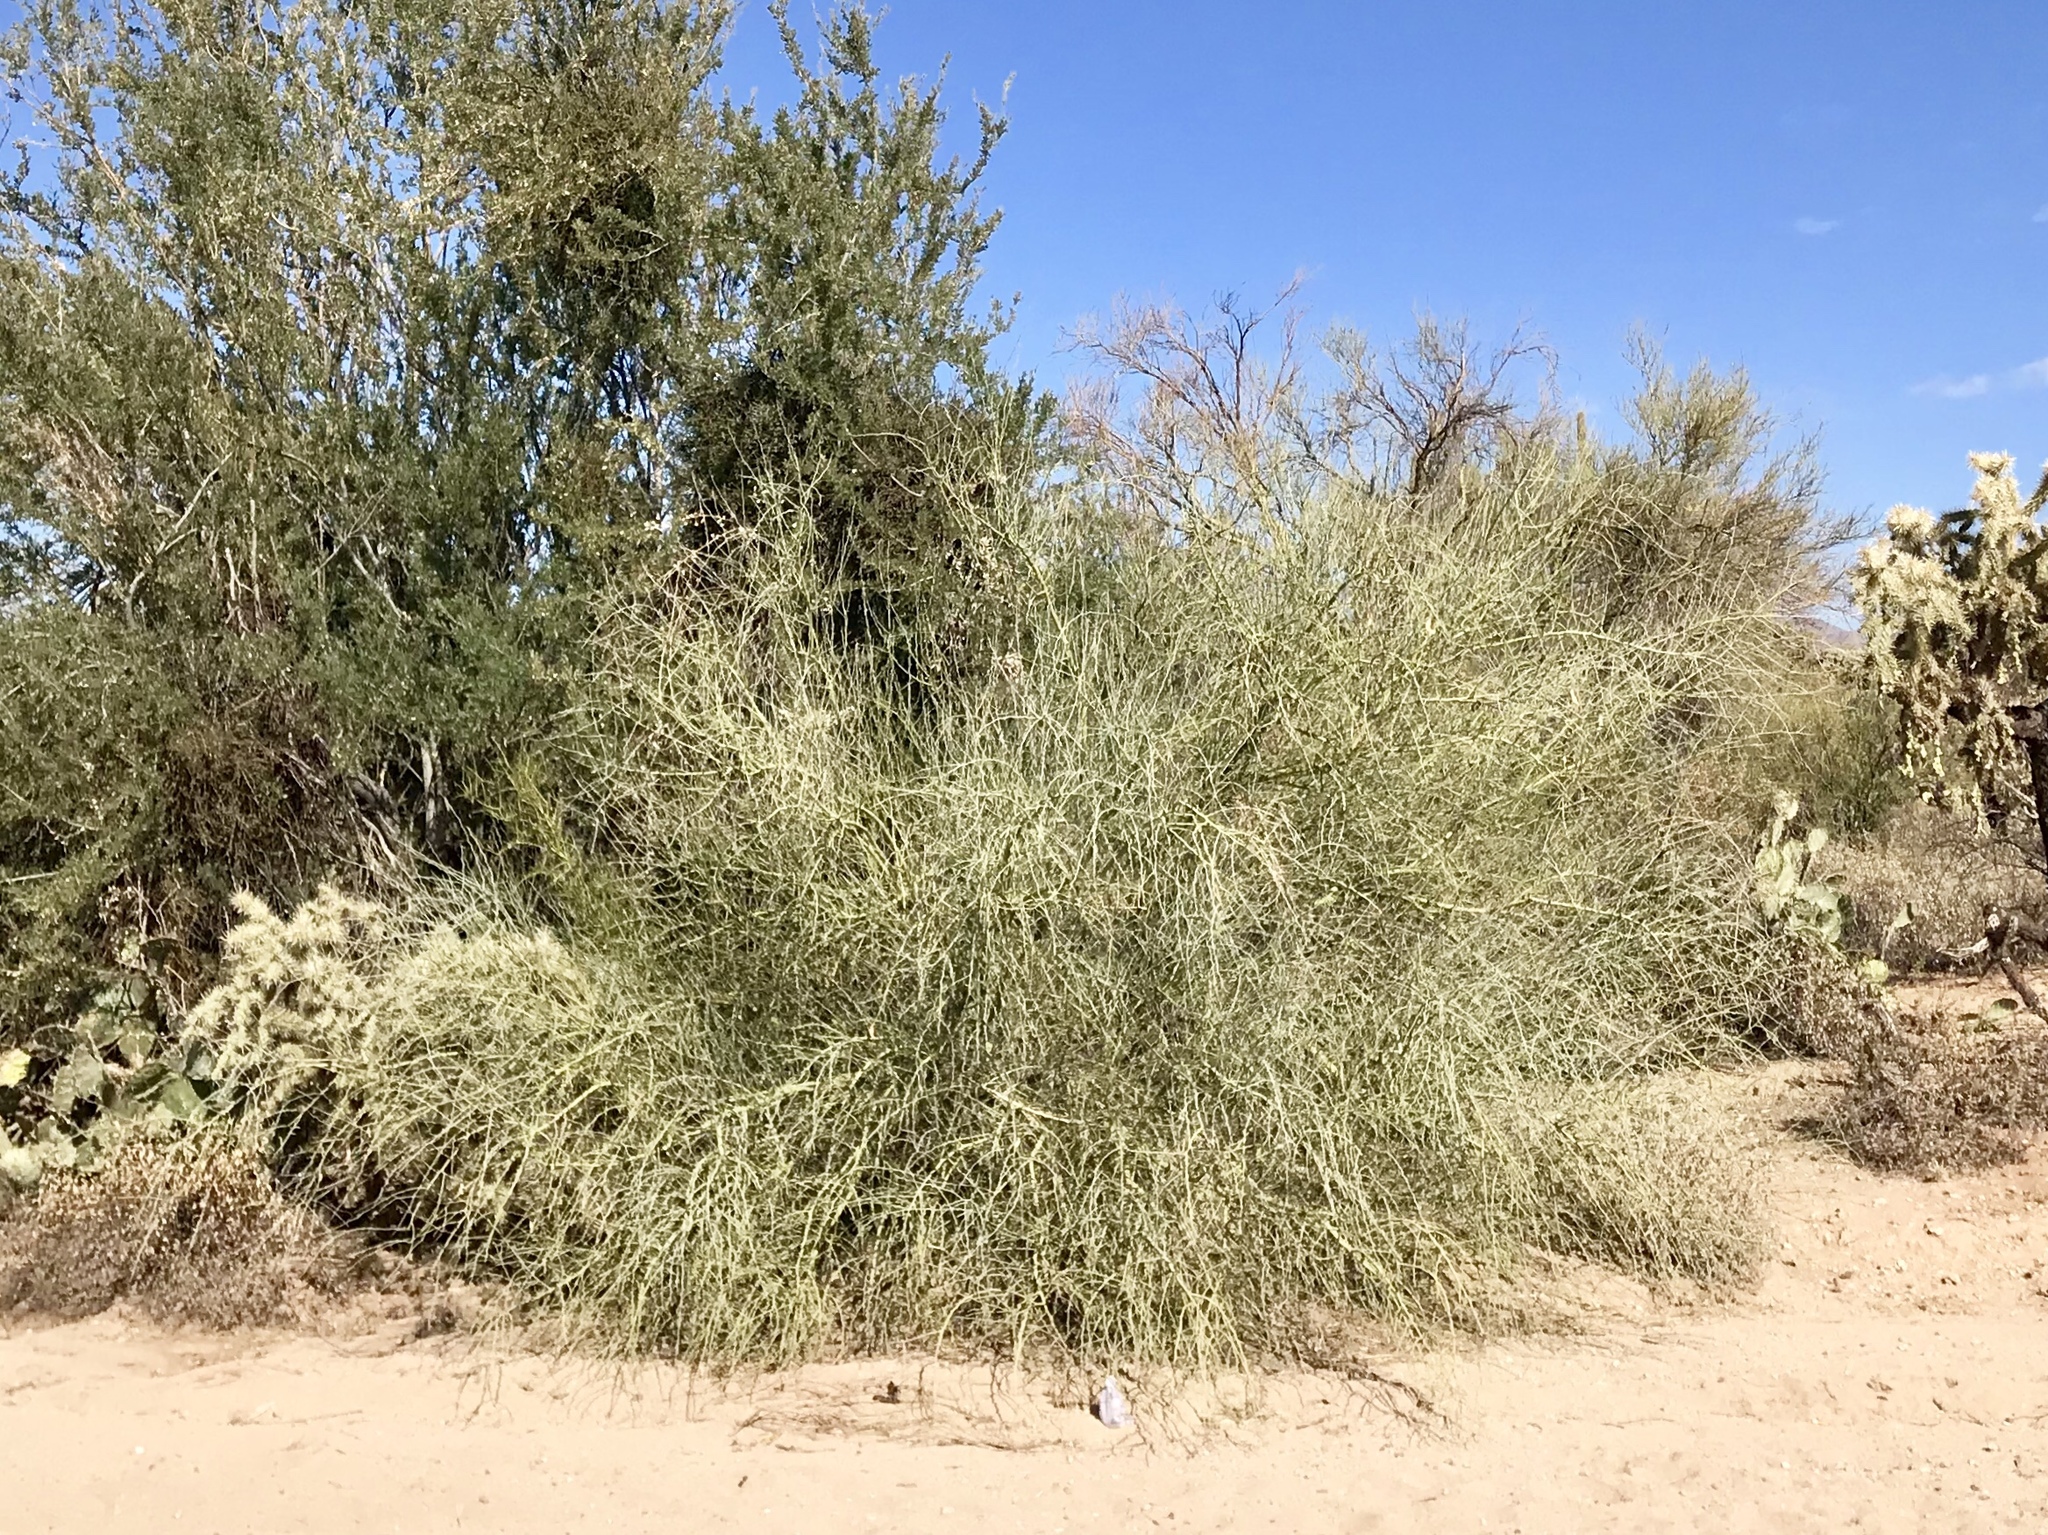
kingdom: Plantae
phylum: Tracheophyta
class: Magnoliopsida
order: Fabales
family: Fabaceae
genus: Parkinsonia
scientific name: Parkinsonia florida
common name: Blue paloverde
